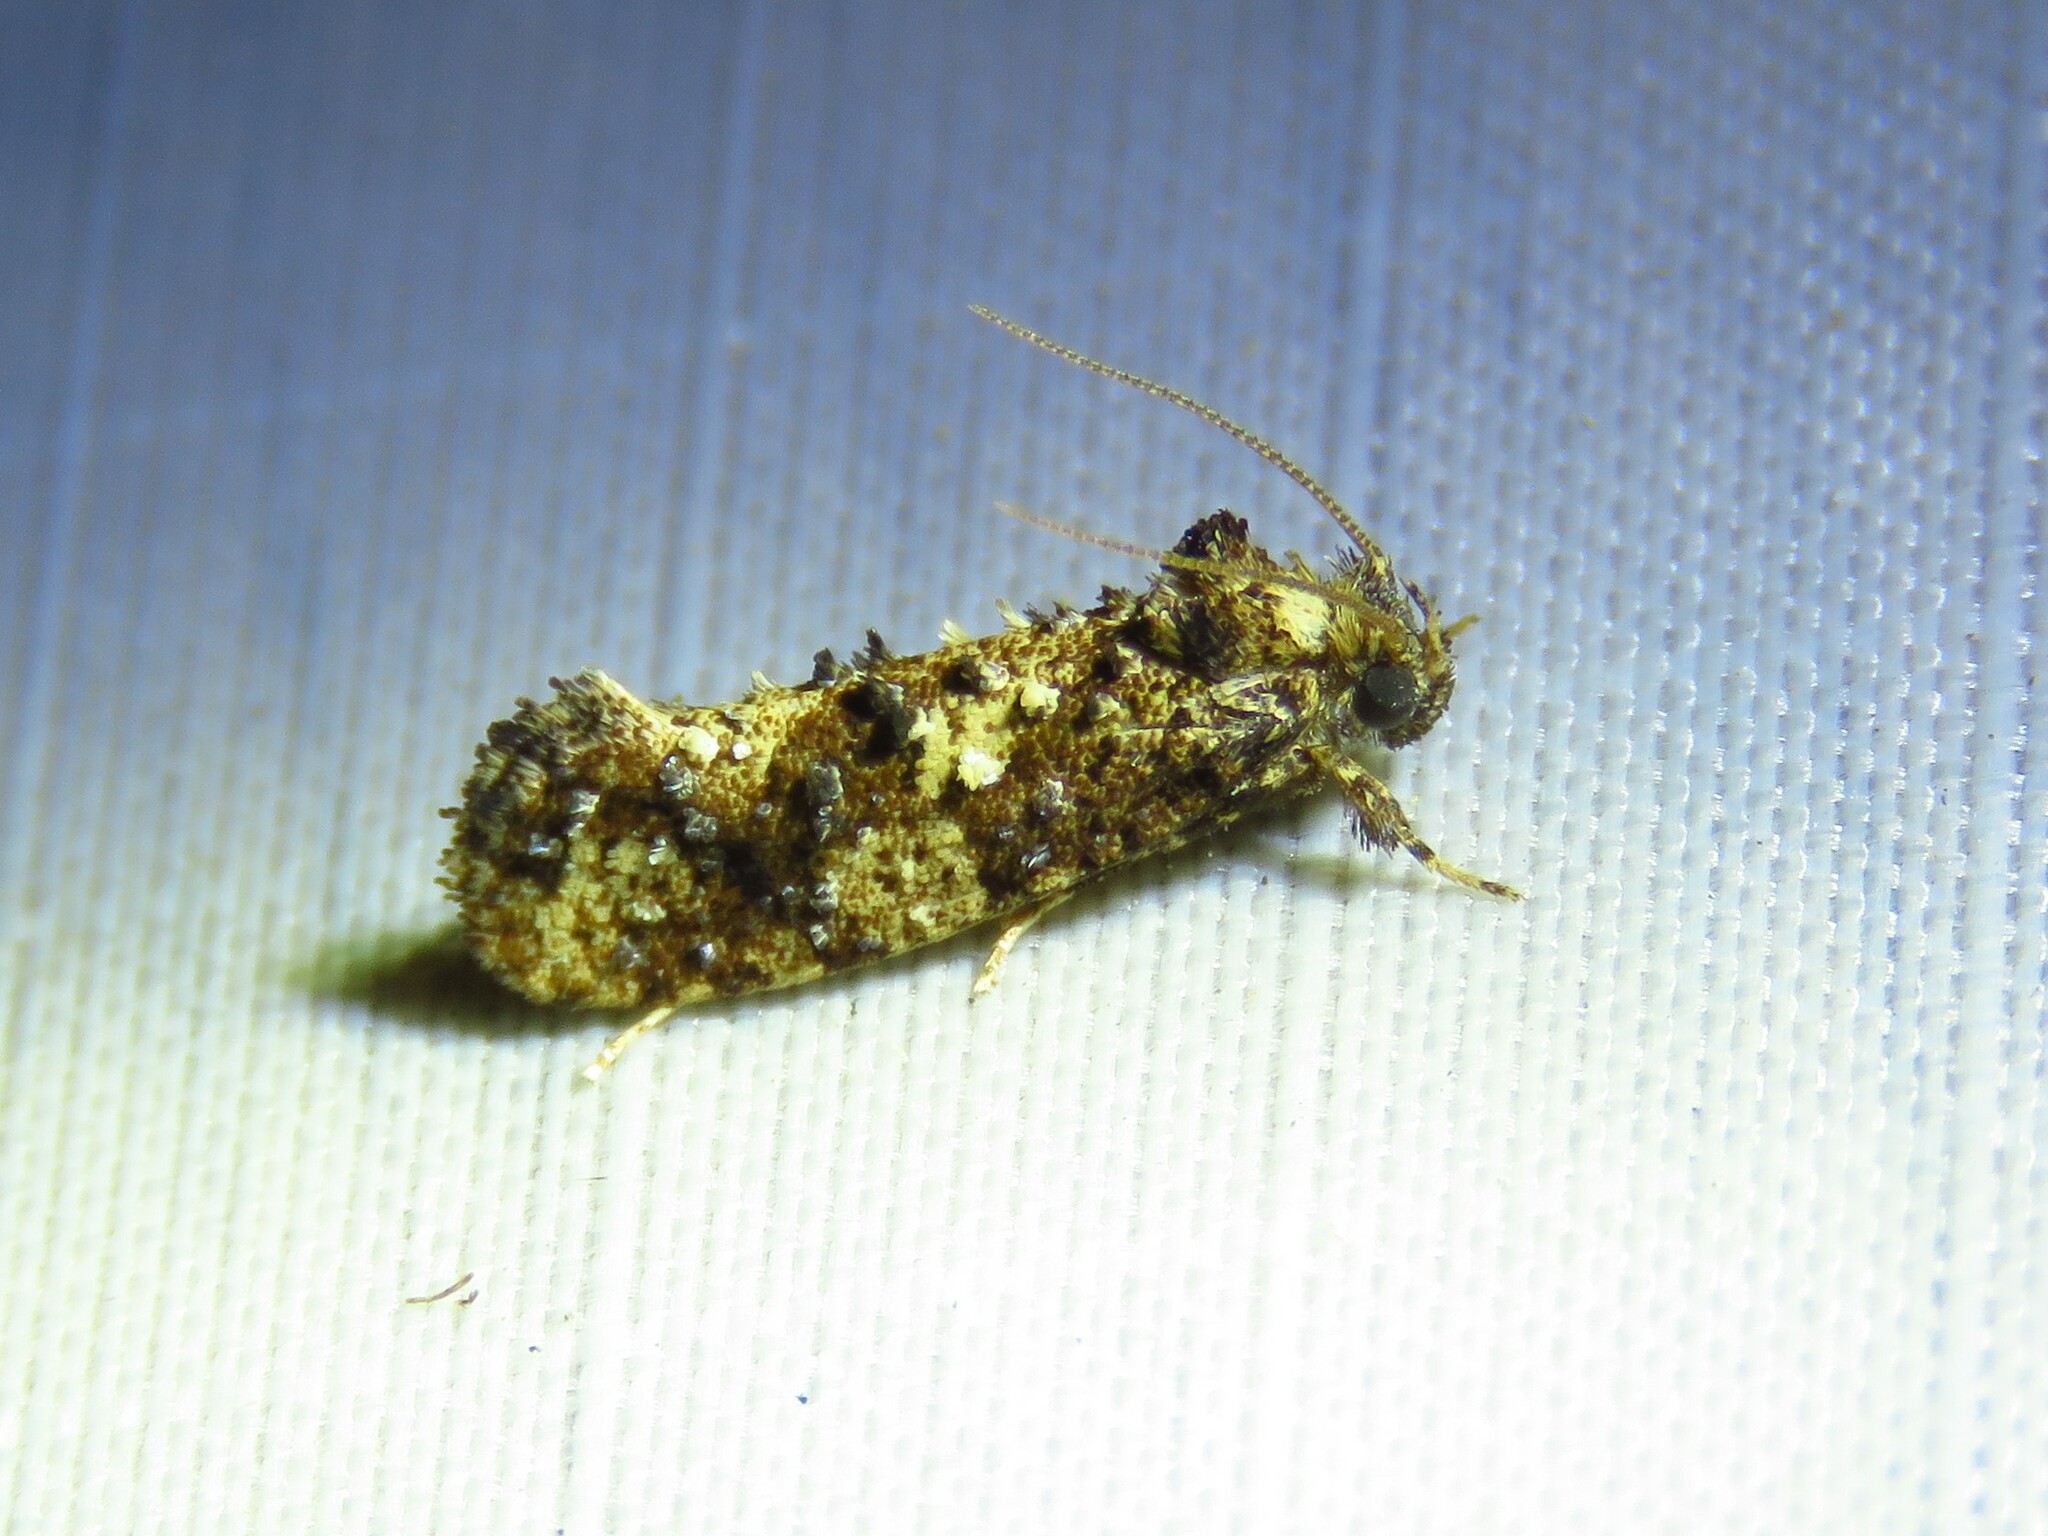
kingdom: Animalia
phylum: Arthropoda
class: Insecta
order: Lepidoptera
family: Tineidae
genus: Acrolophus
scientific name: Acrolophus cressoni
